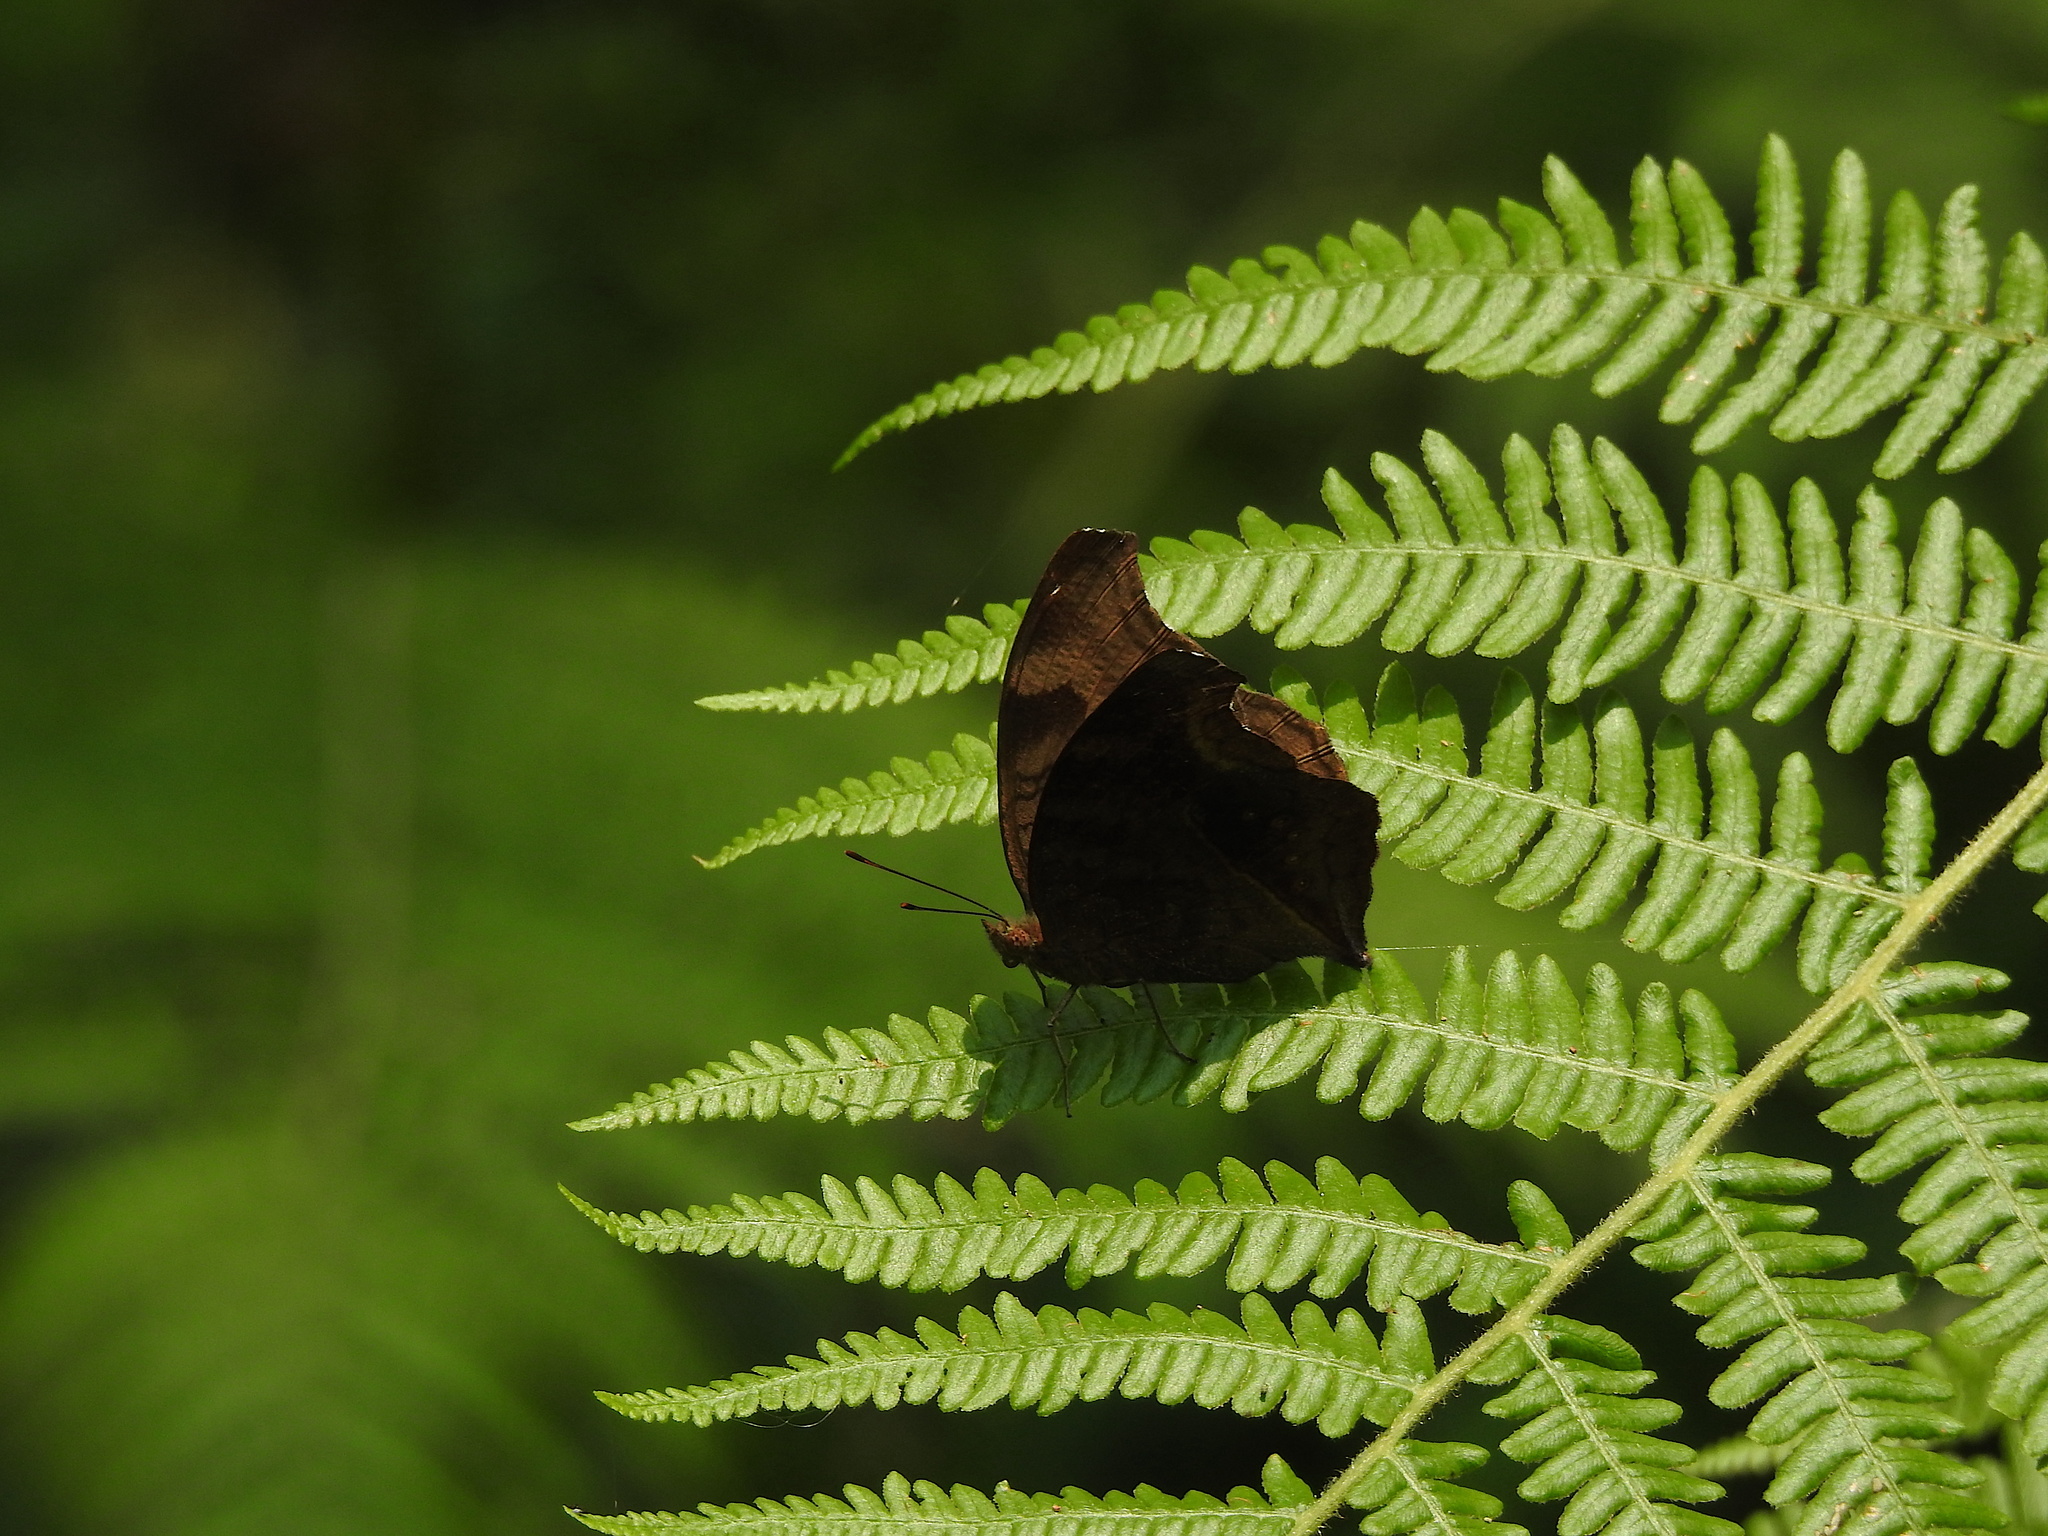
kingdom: Animalia
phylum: Arthropoda
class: Insecta
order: Lepidoptera
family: Nymphalidae
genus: Junonia
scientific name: Junonia iphita
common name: Chocolate pansy
